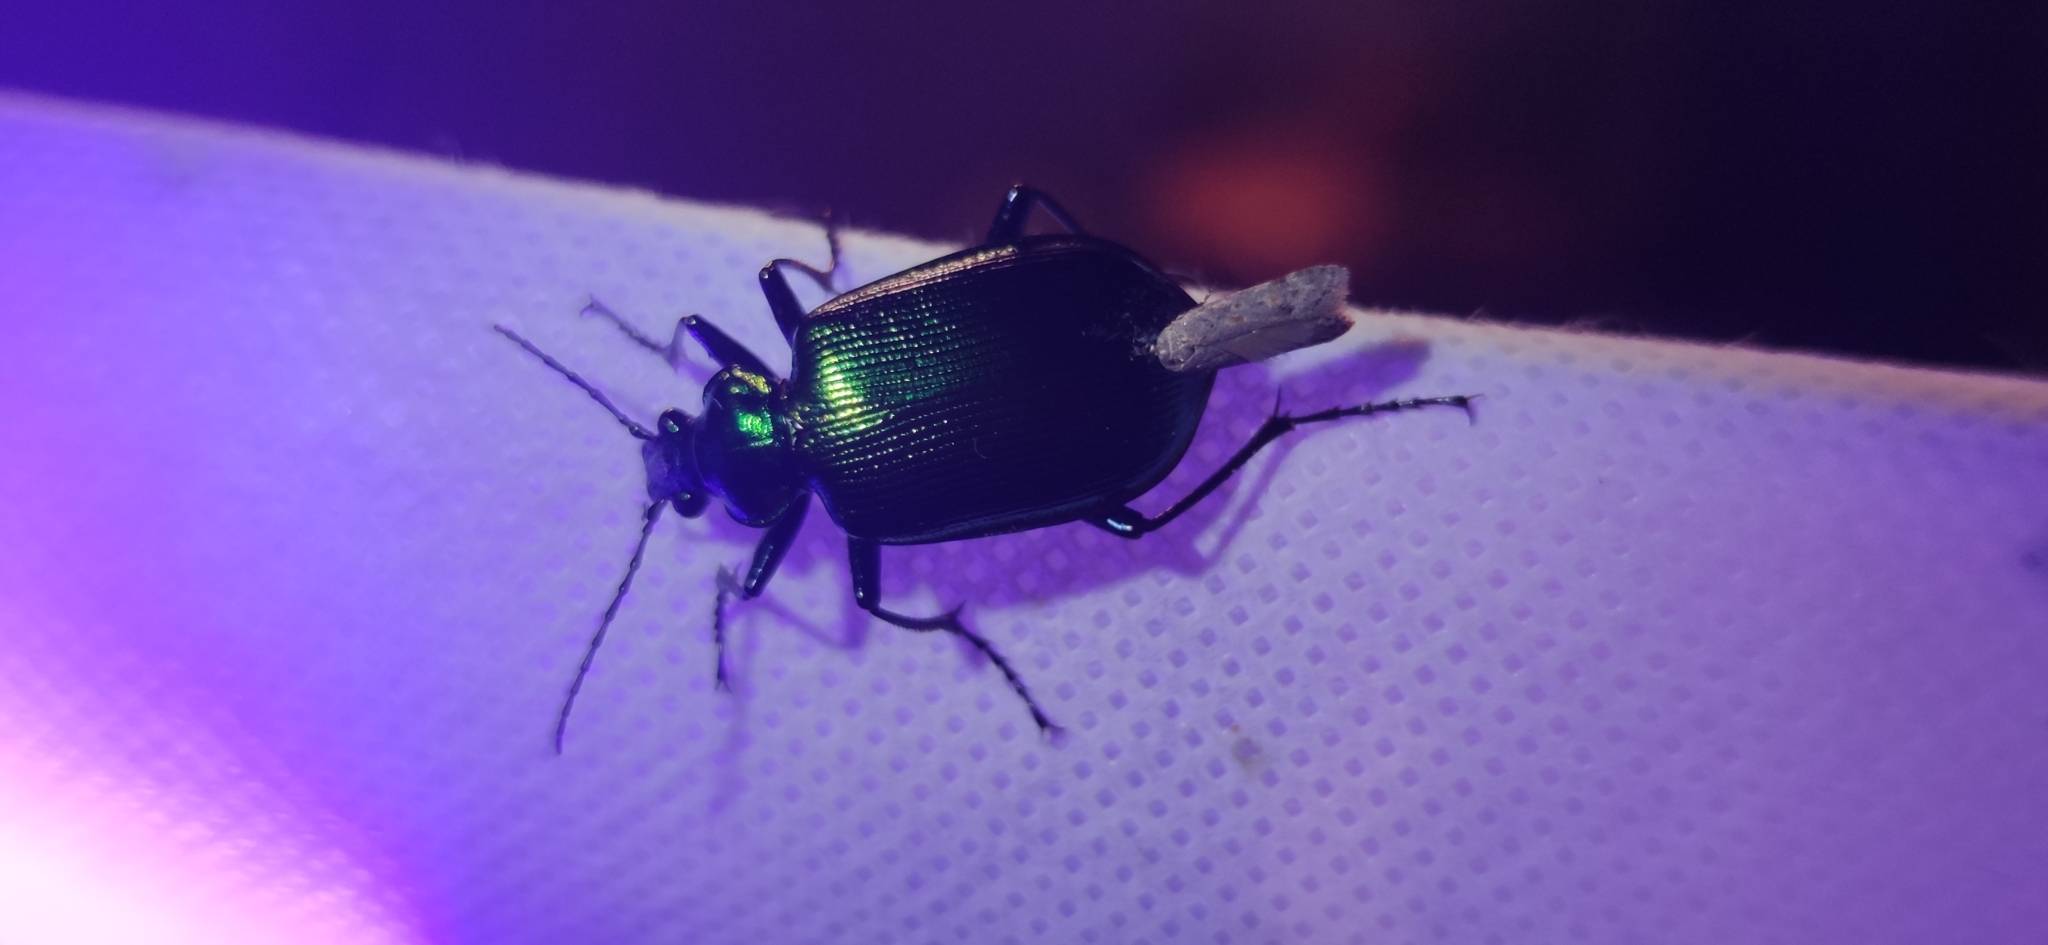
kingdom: Animalia
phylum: Arthropoda
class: Insecta
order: Coleoptera
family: Carabidae
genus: Calosoma
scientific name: Calosoma aurocinctum
